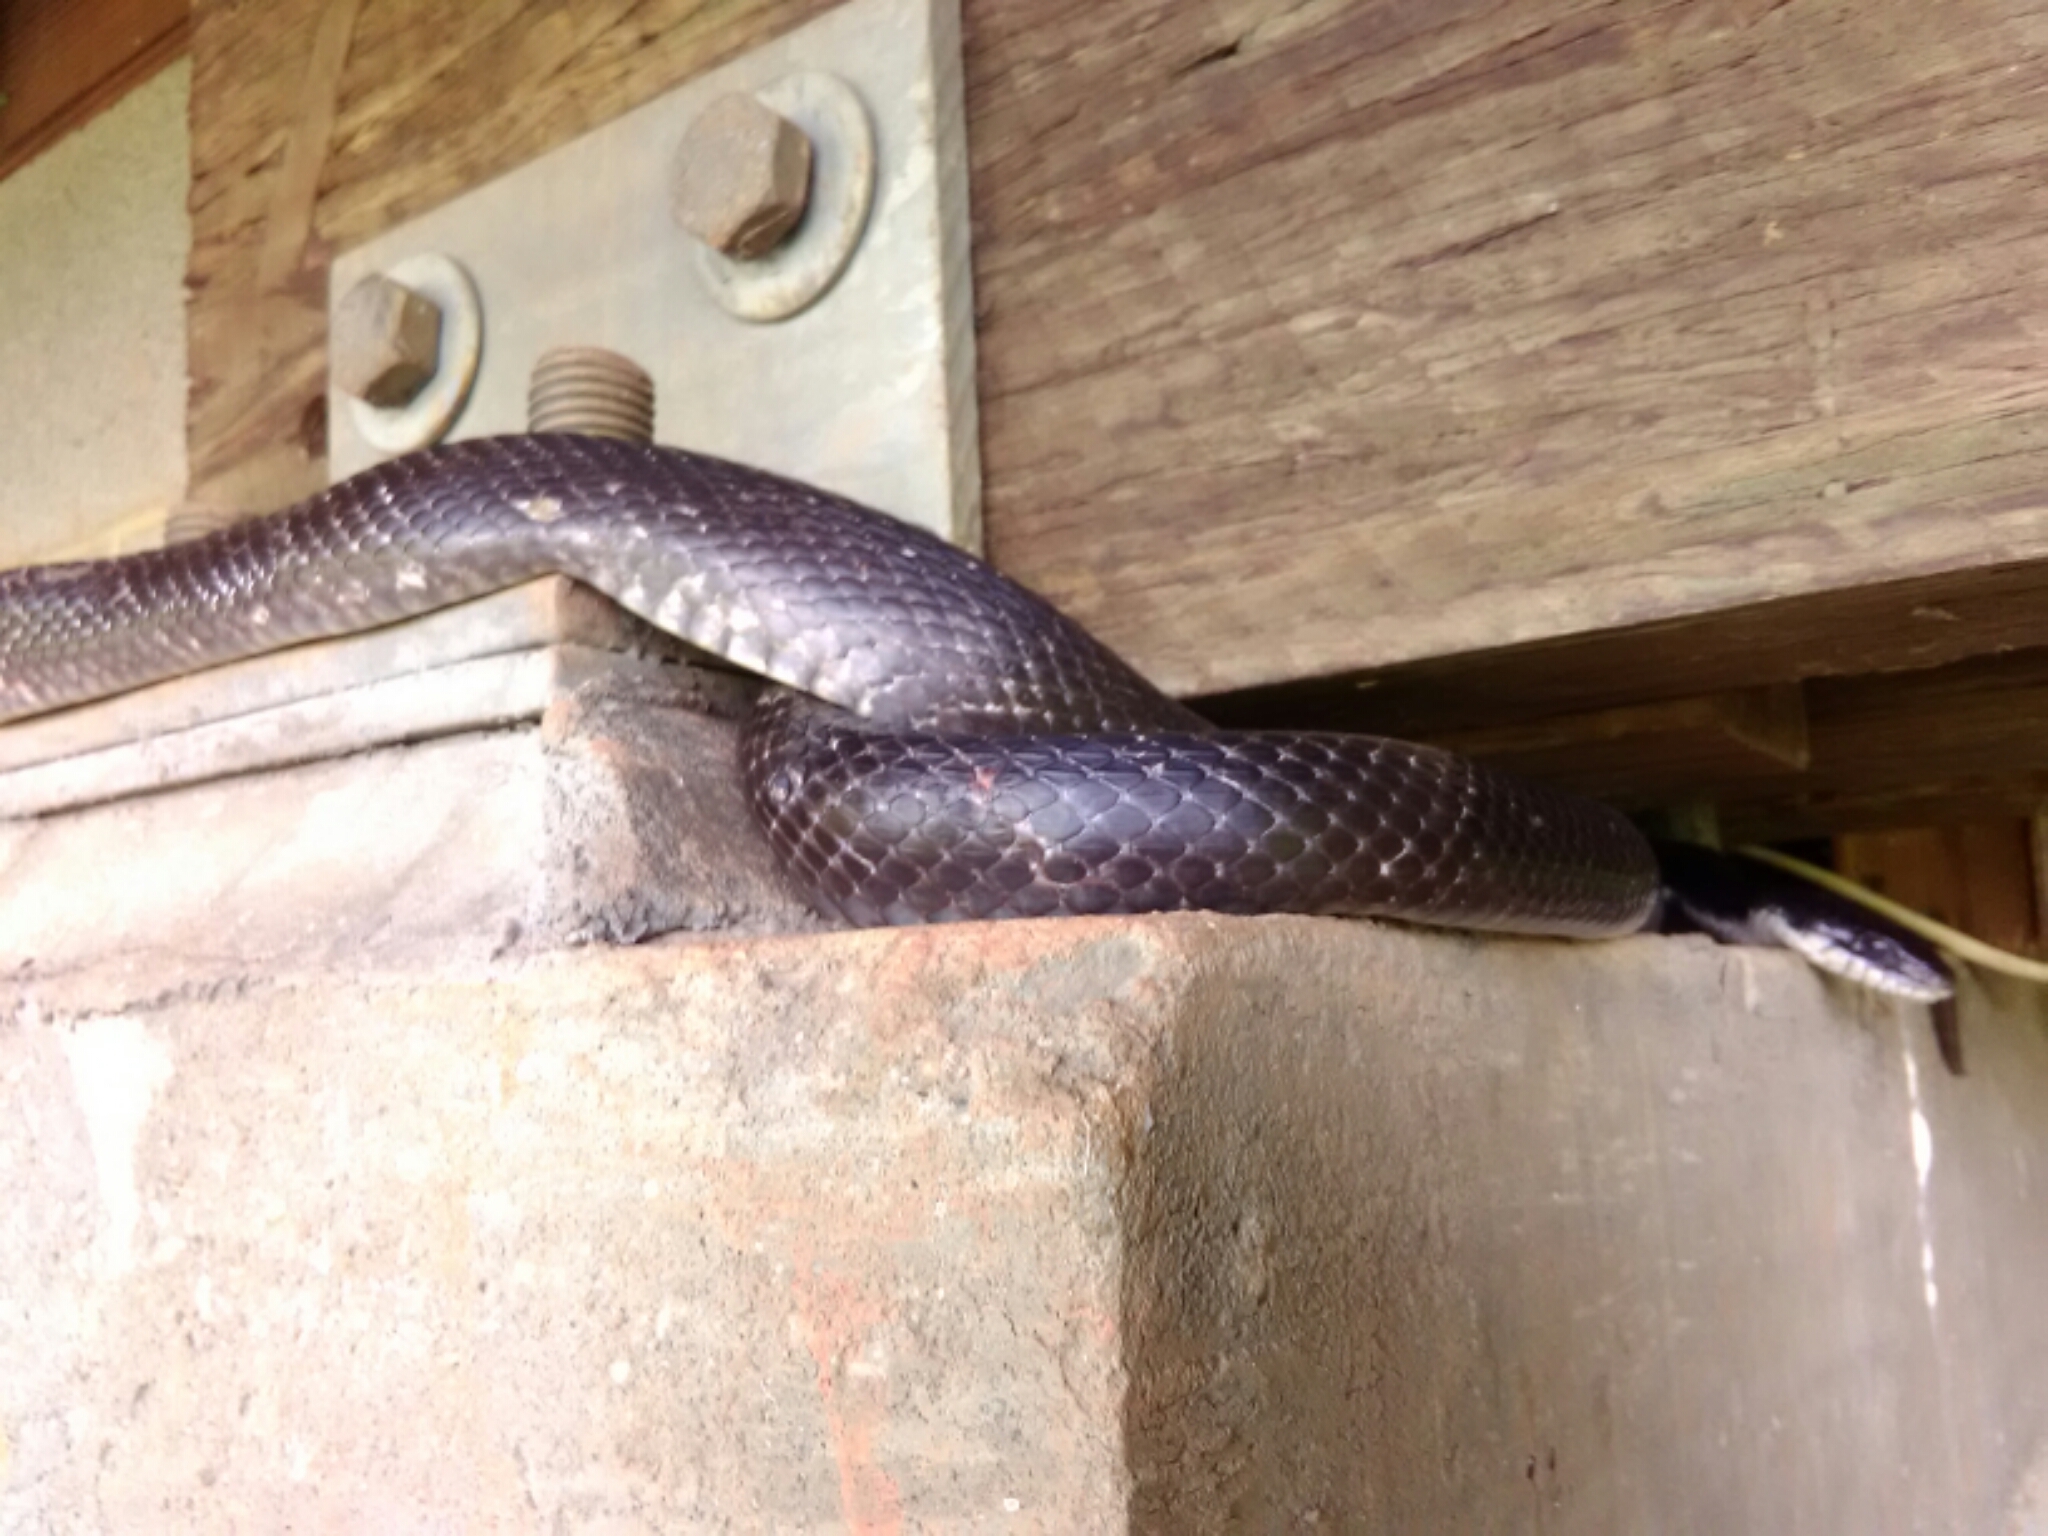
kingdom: Animalia
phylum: Chordata
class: Squamata
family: Colubridae
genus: Pantherophis
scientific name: Pantherophis alleghaniensis
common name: Eastern rat snake
